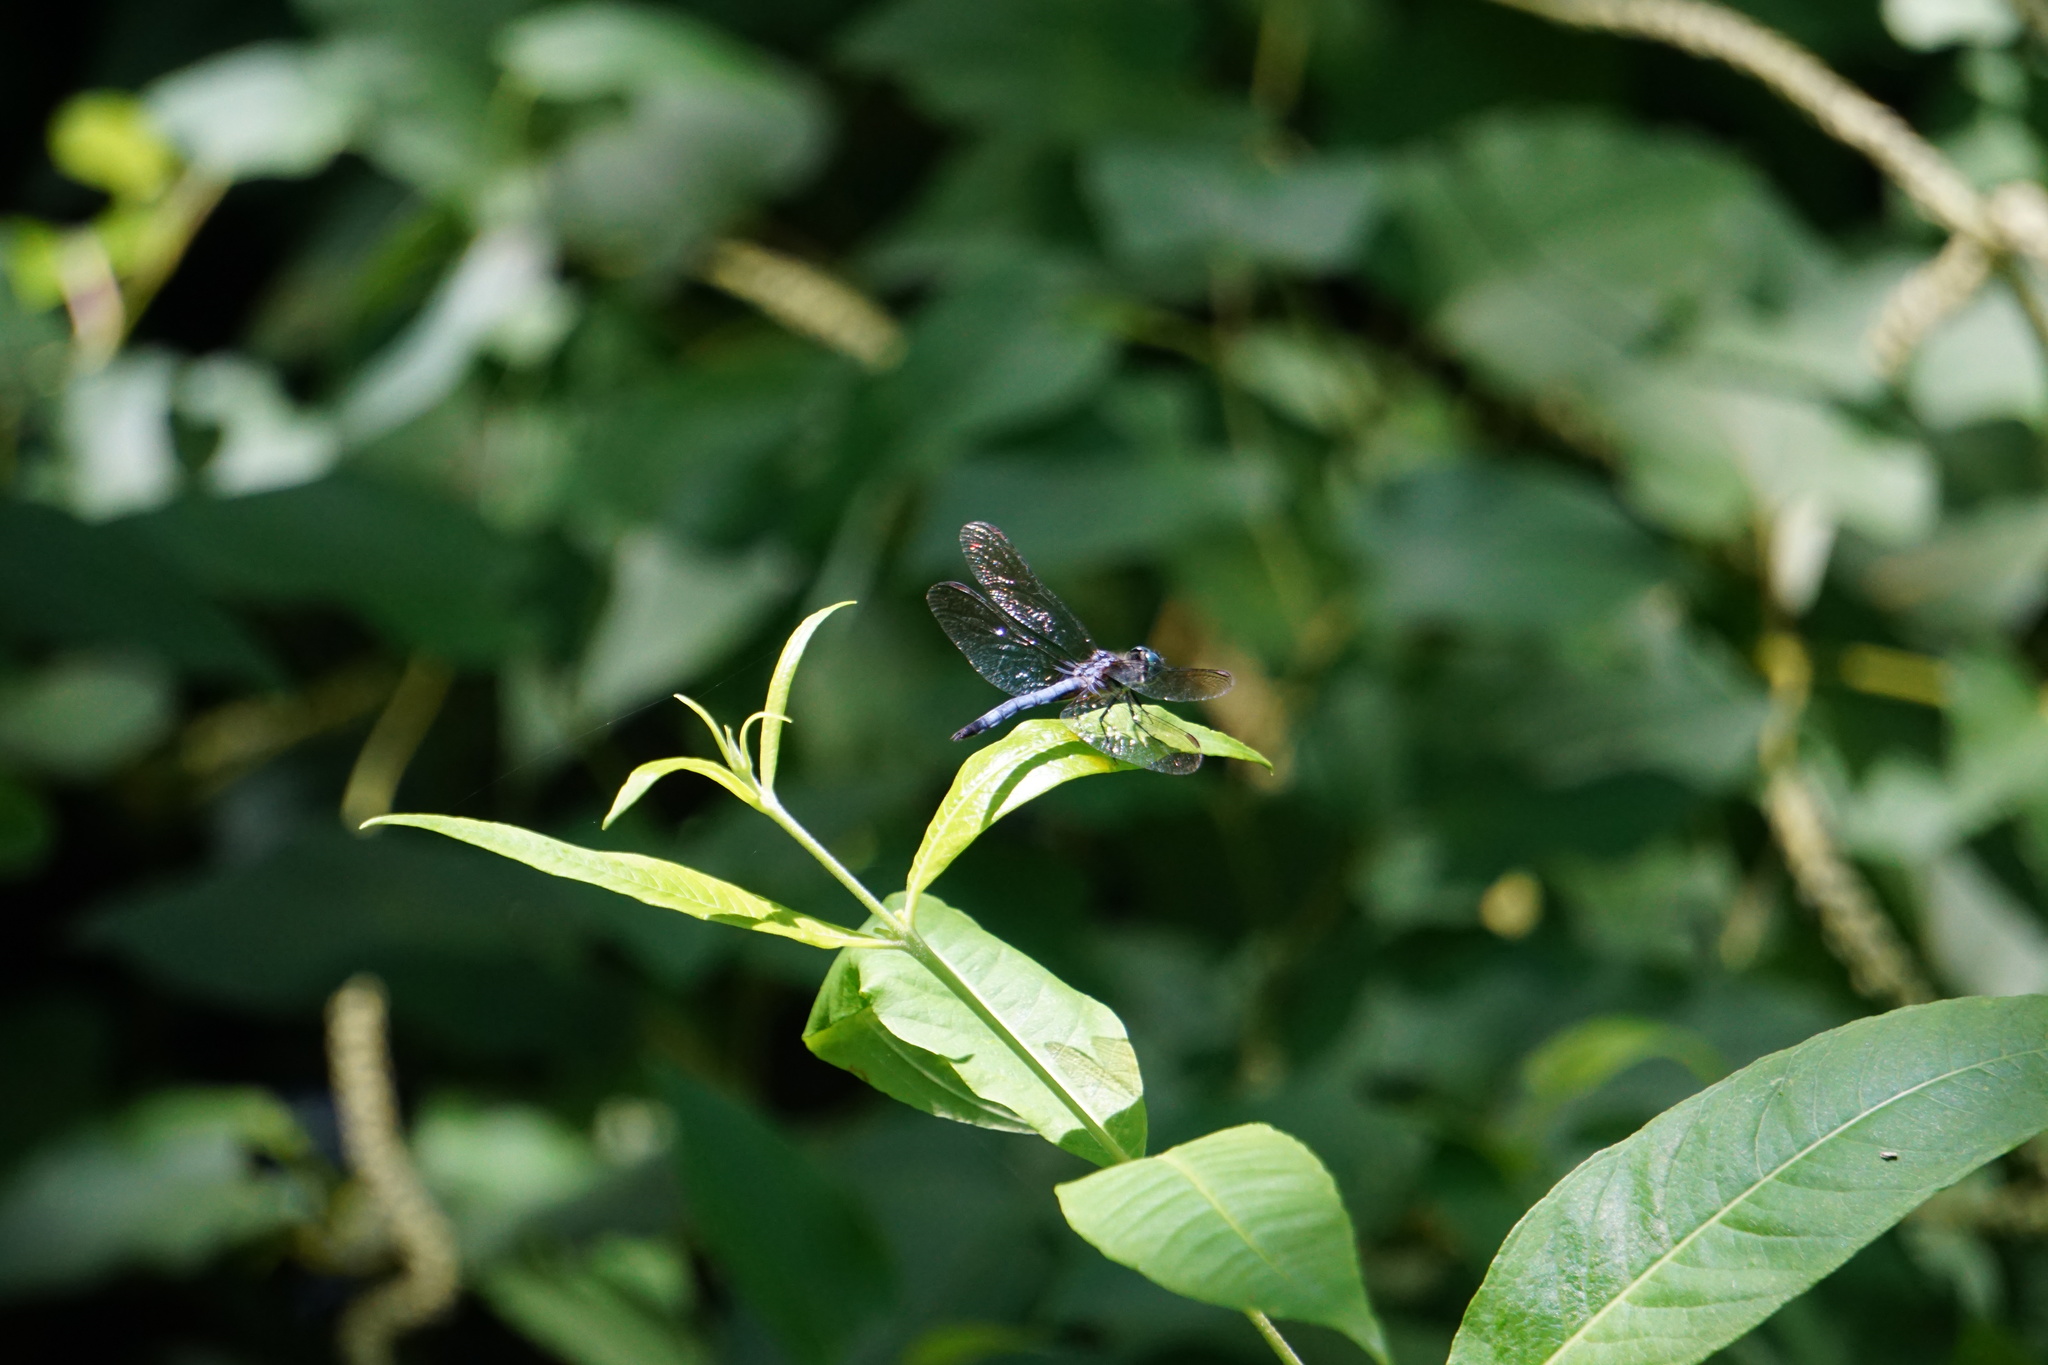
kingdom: Animalia
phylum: Arthropoda
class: Insecta
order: Odonata
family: Libellulidae
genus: Pachydiplax
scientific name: Pachydiplax longipennis
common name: Blue dasher
